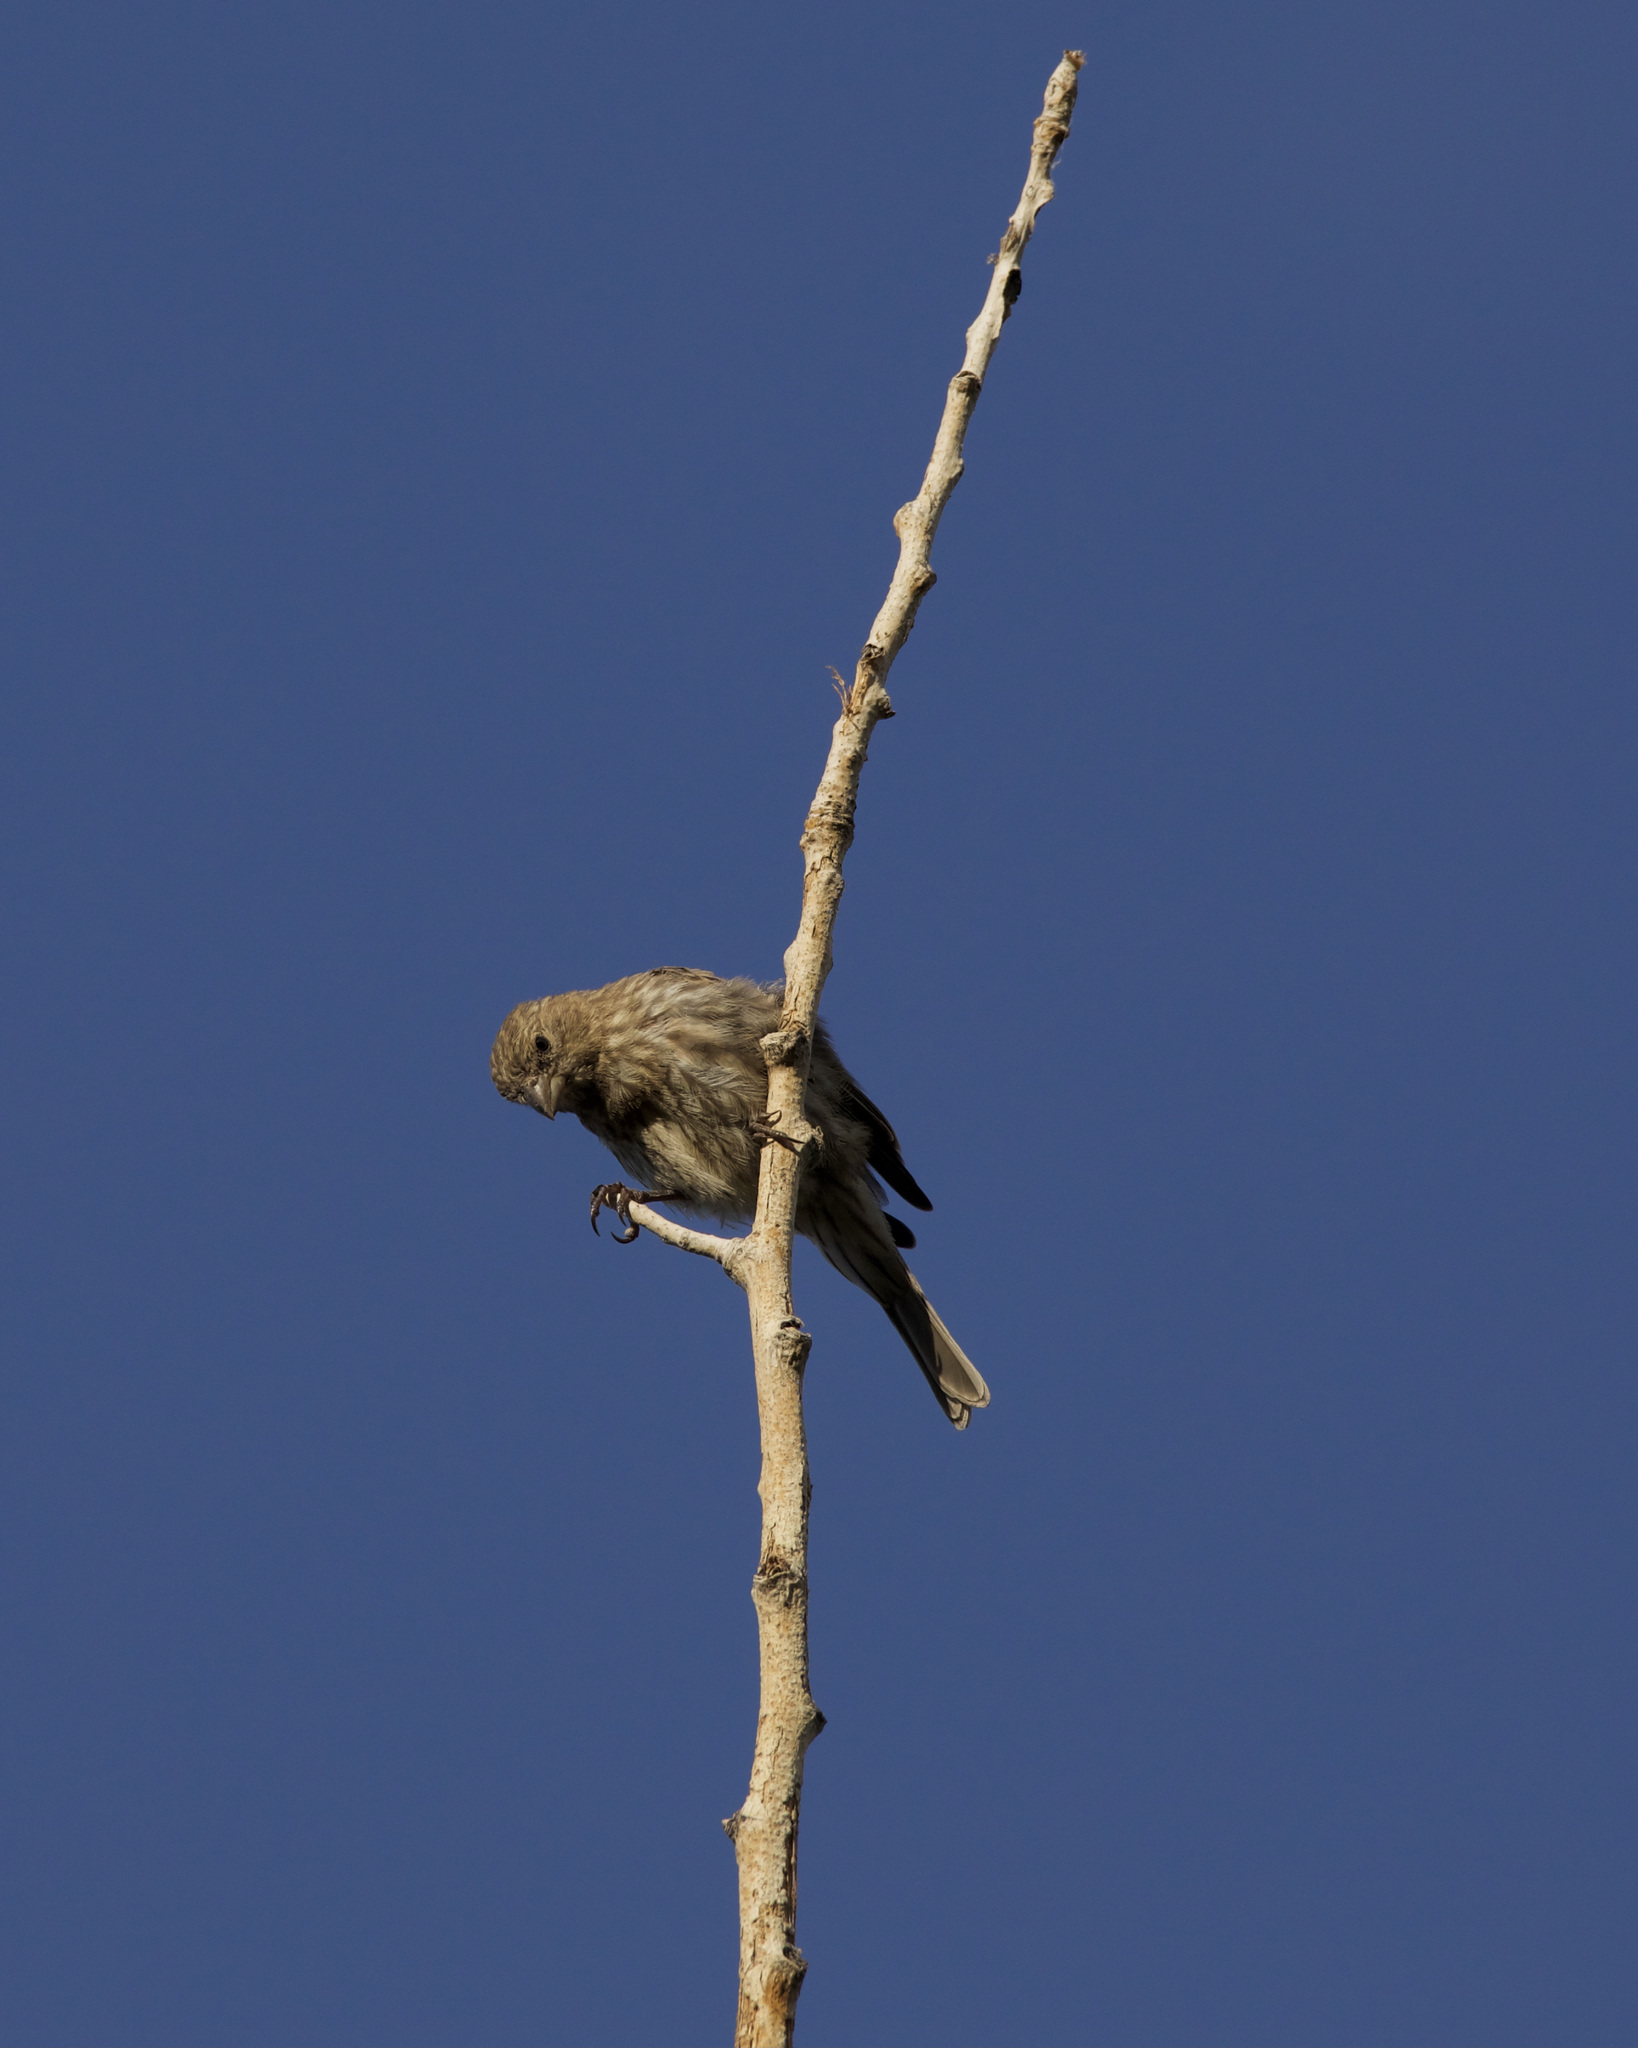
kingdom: Animalia
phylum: Chordata
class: Aves
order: Passeriformes
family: Fringillidae
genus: Haemorhous
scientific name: Haemorhous mexicanus
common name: House finch
